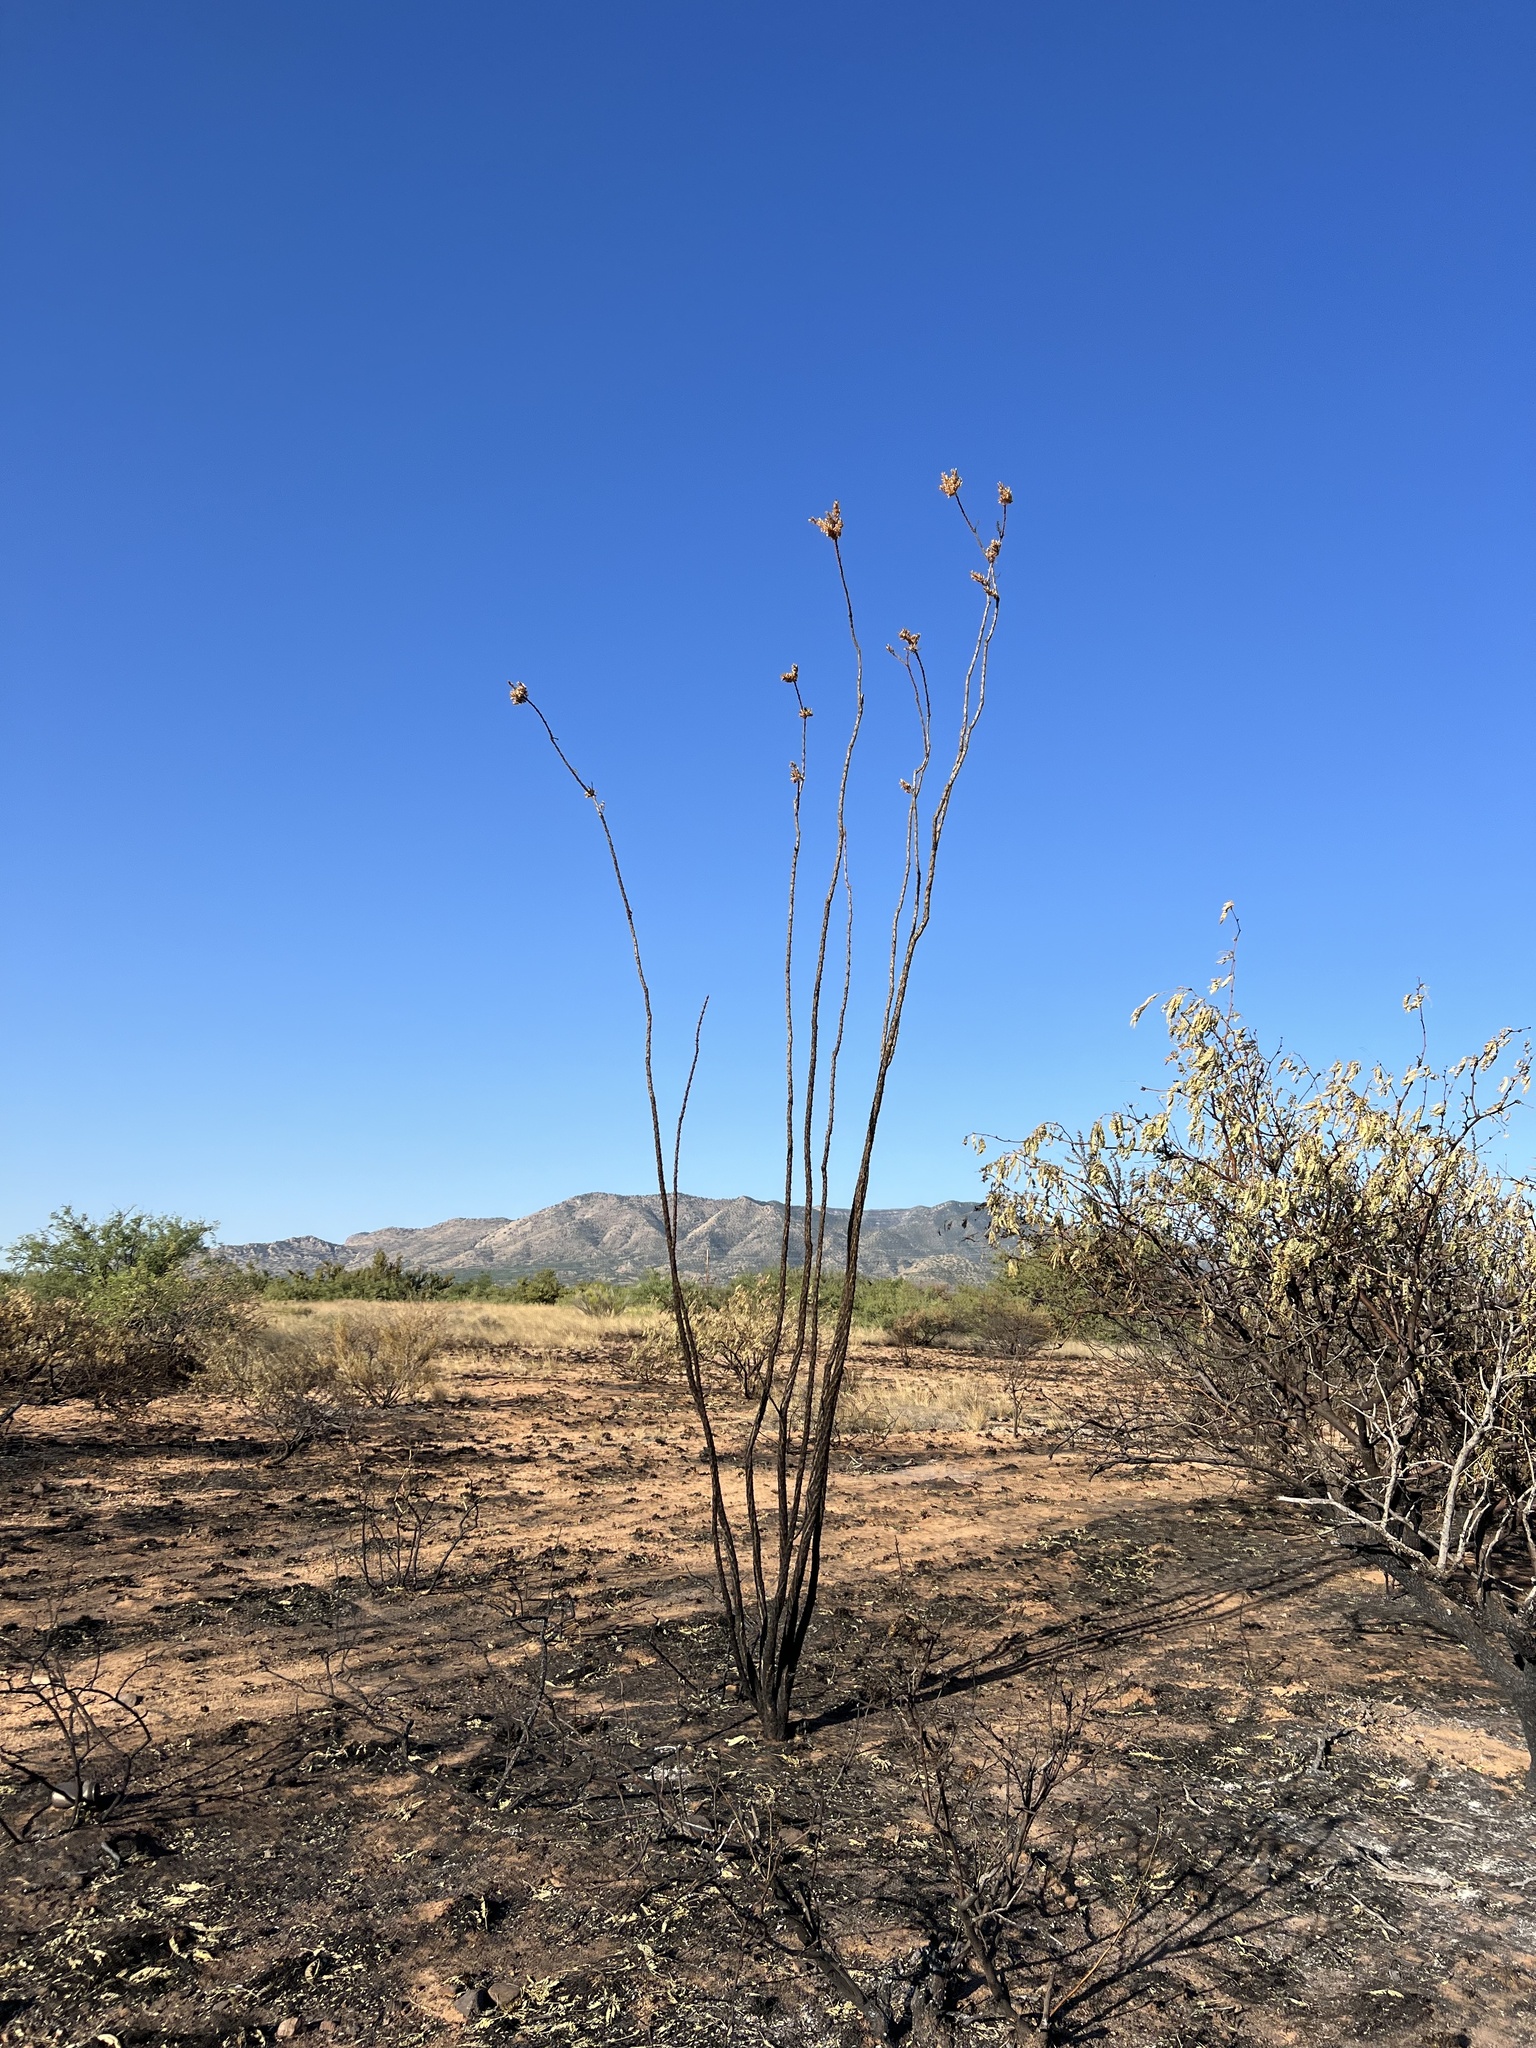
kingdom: Plantae
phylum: Tracheophyta
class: Magnoliopsida
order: Ericales
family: Fouquieriaceae
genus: Fouquieria
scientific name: Fouquieria splendens
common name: Vine-cactus
